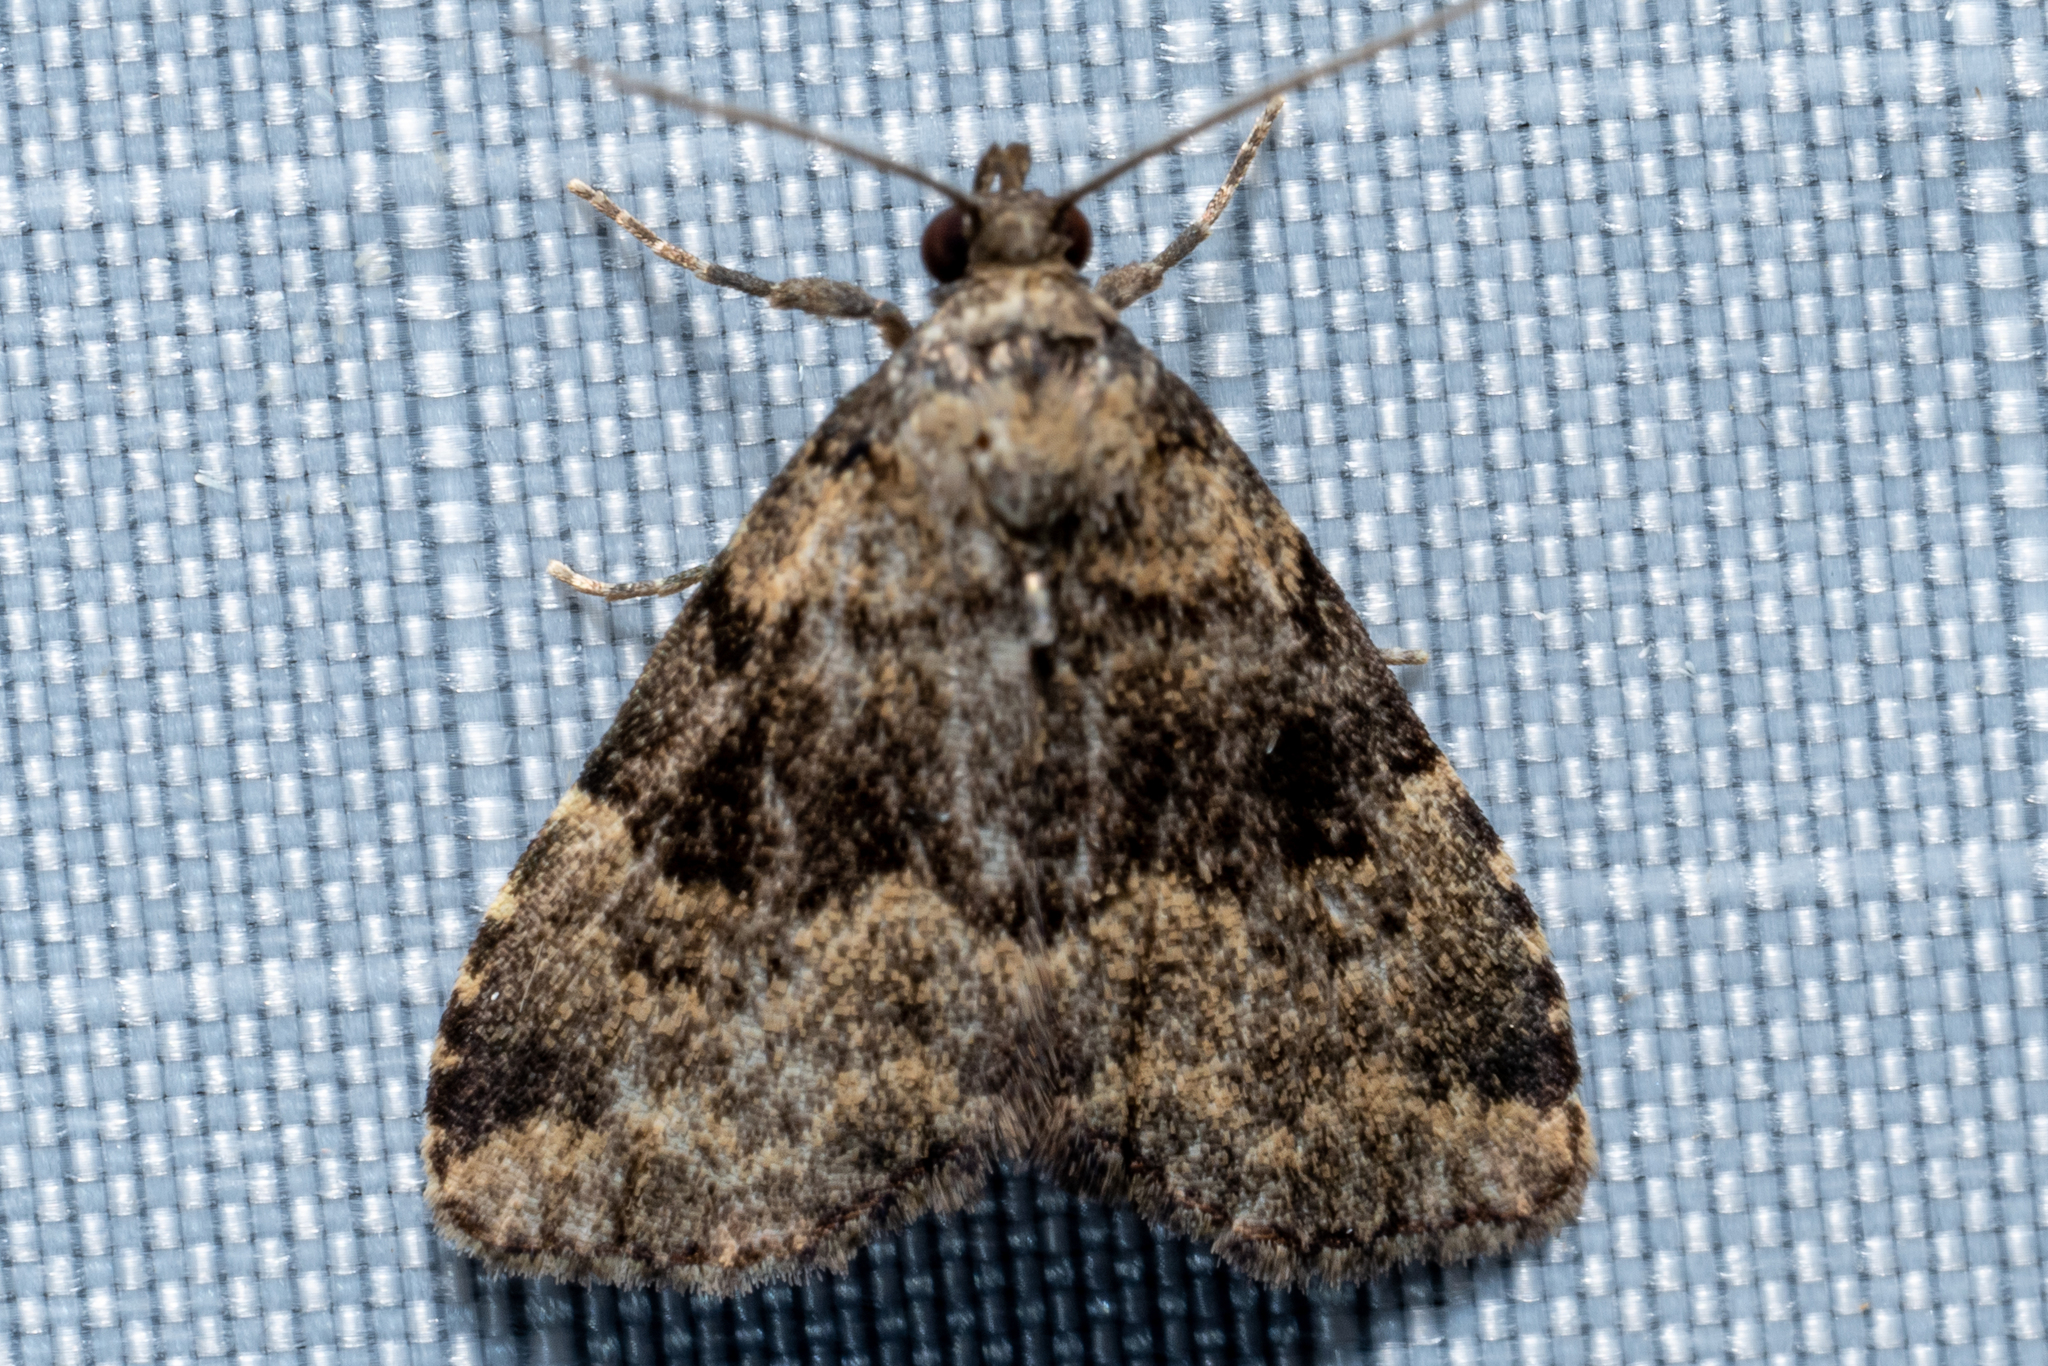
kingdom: Animalia
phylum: Arthropoda
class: Insecta
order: Lepidoptera
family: Erebidae
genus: Dyspyralis
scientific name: Dyspyralis illocata
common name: Visitation moth
